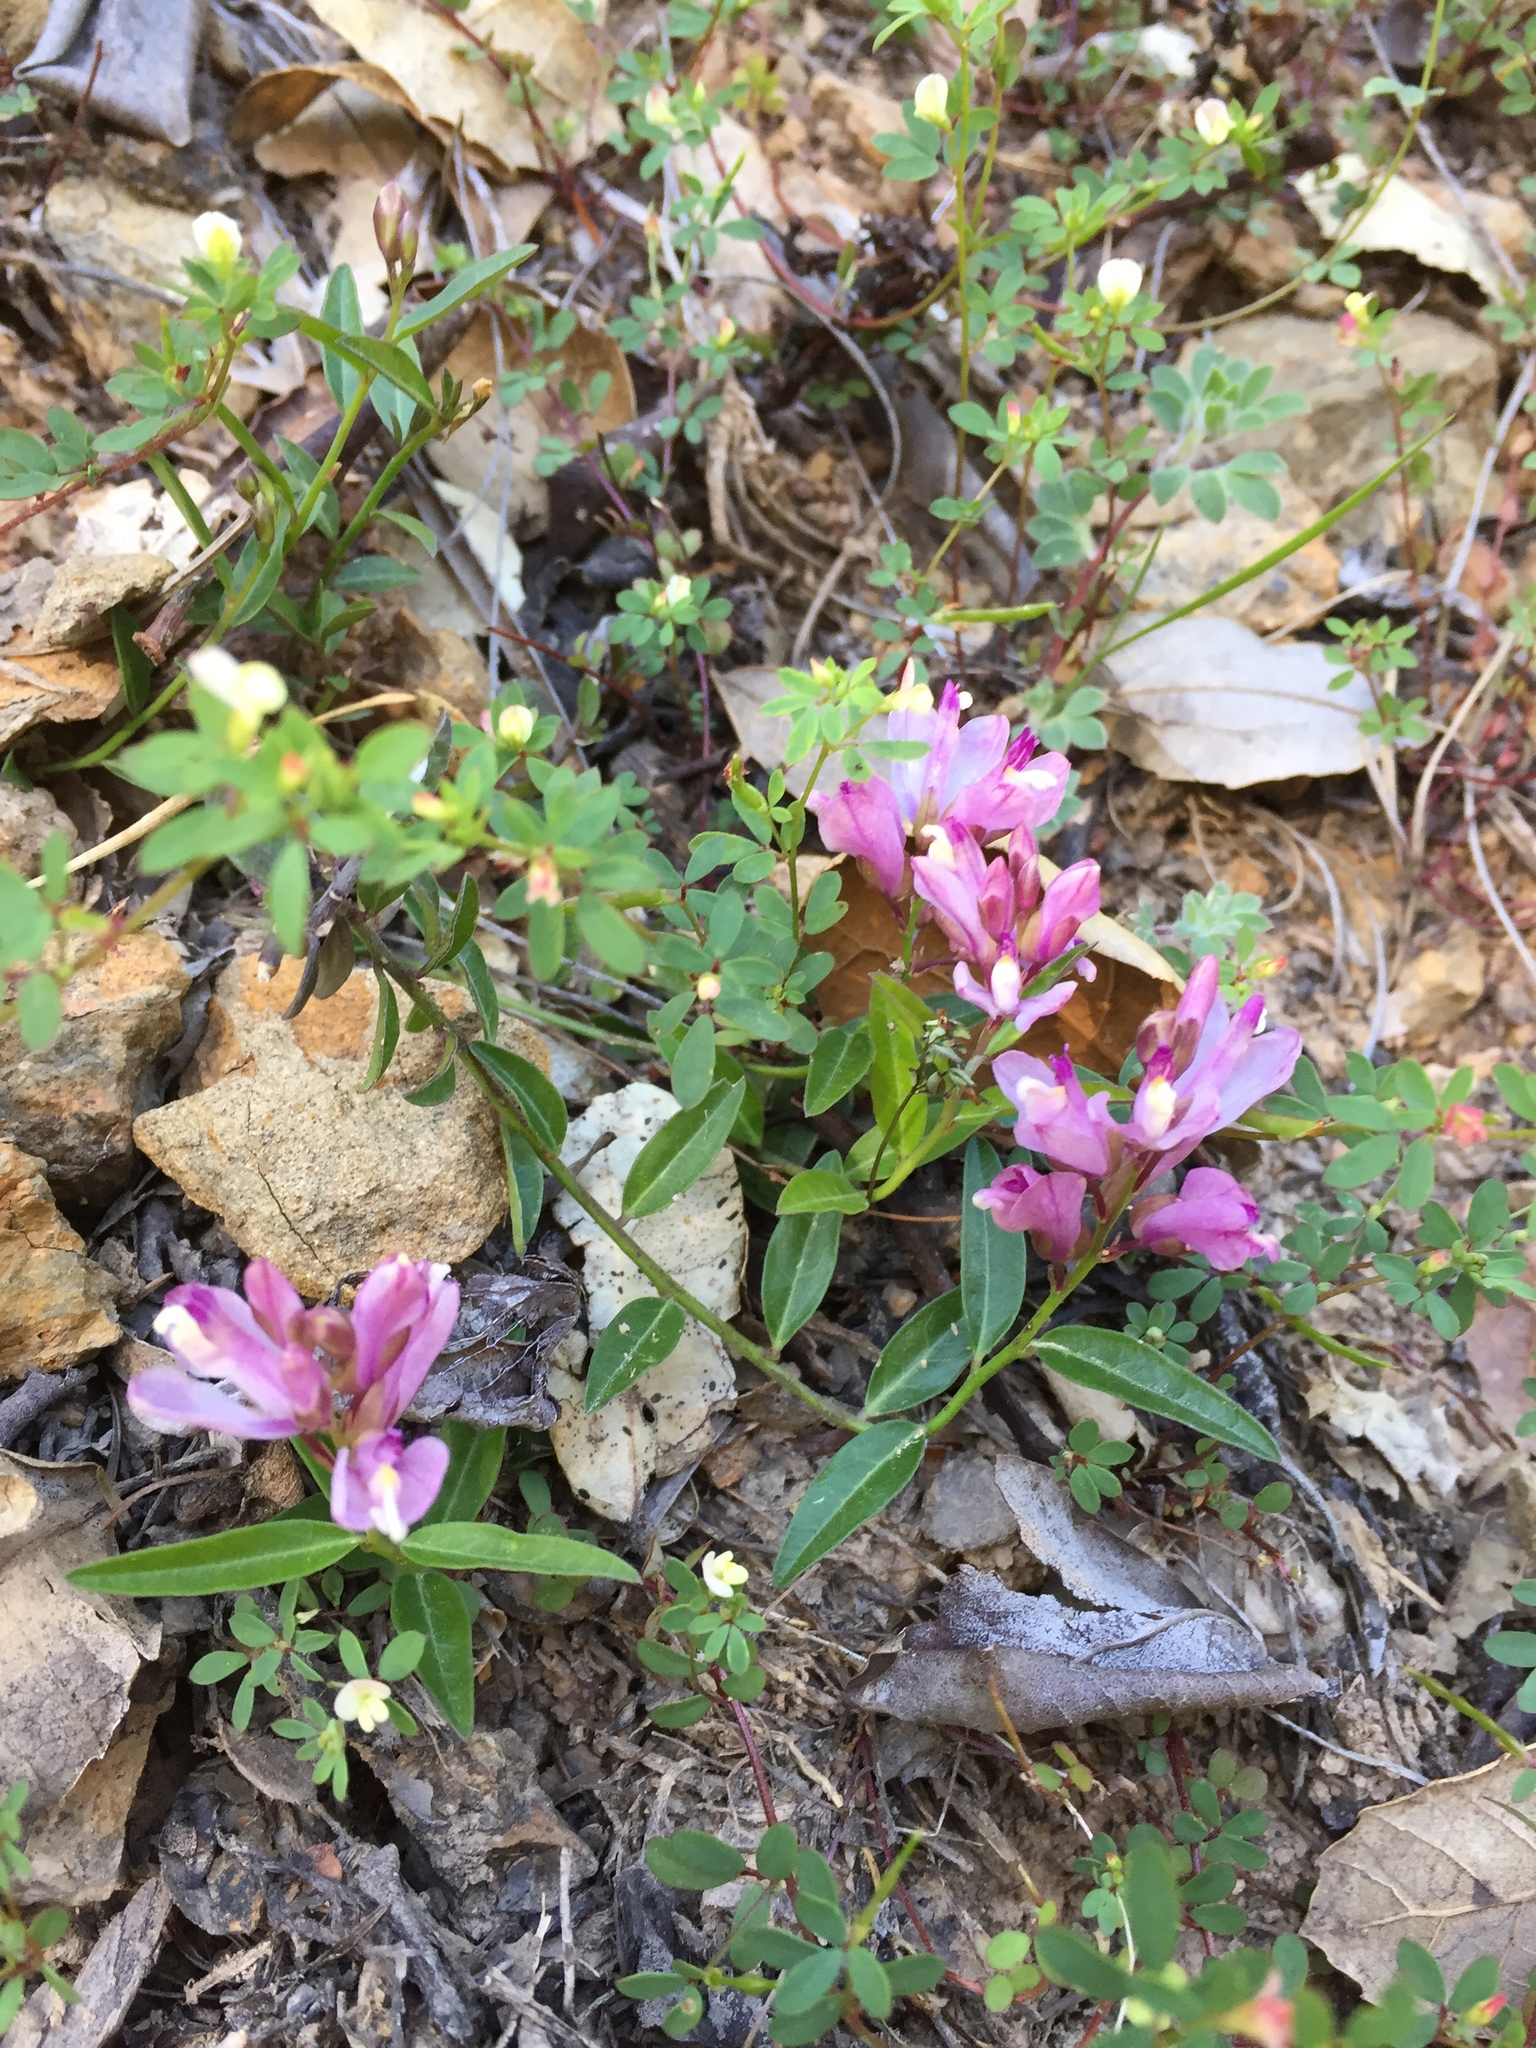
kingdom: Plantae
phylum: Tracheophyta
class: Magnoliopsida
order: Fabales
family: Polygalaceae
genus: Rhinotropis
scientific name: Rhinotropis californica
